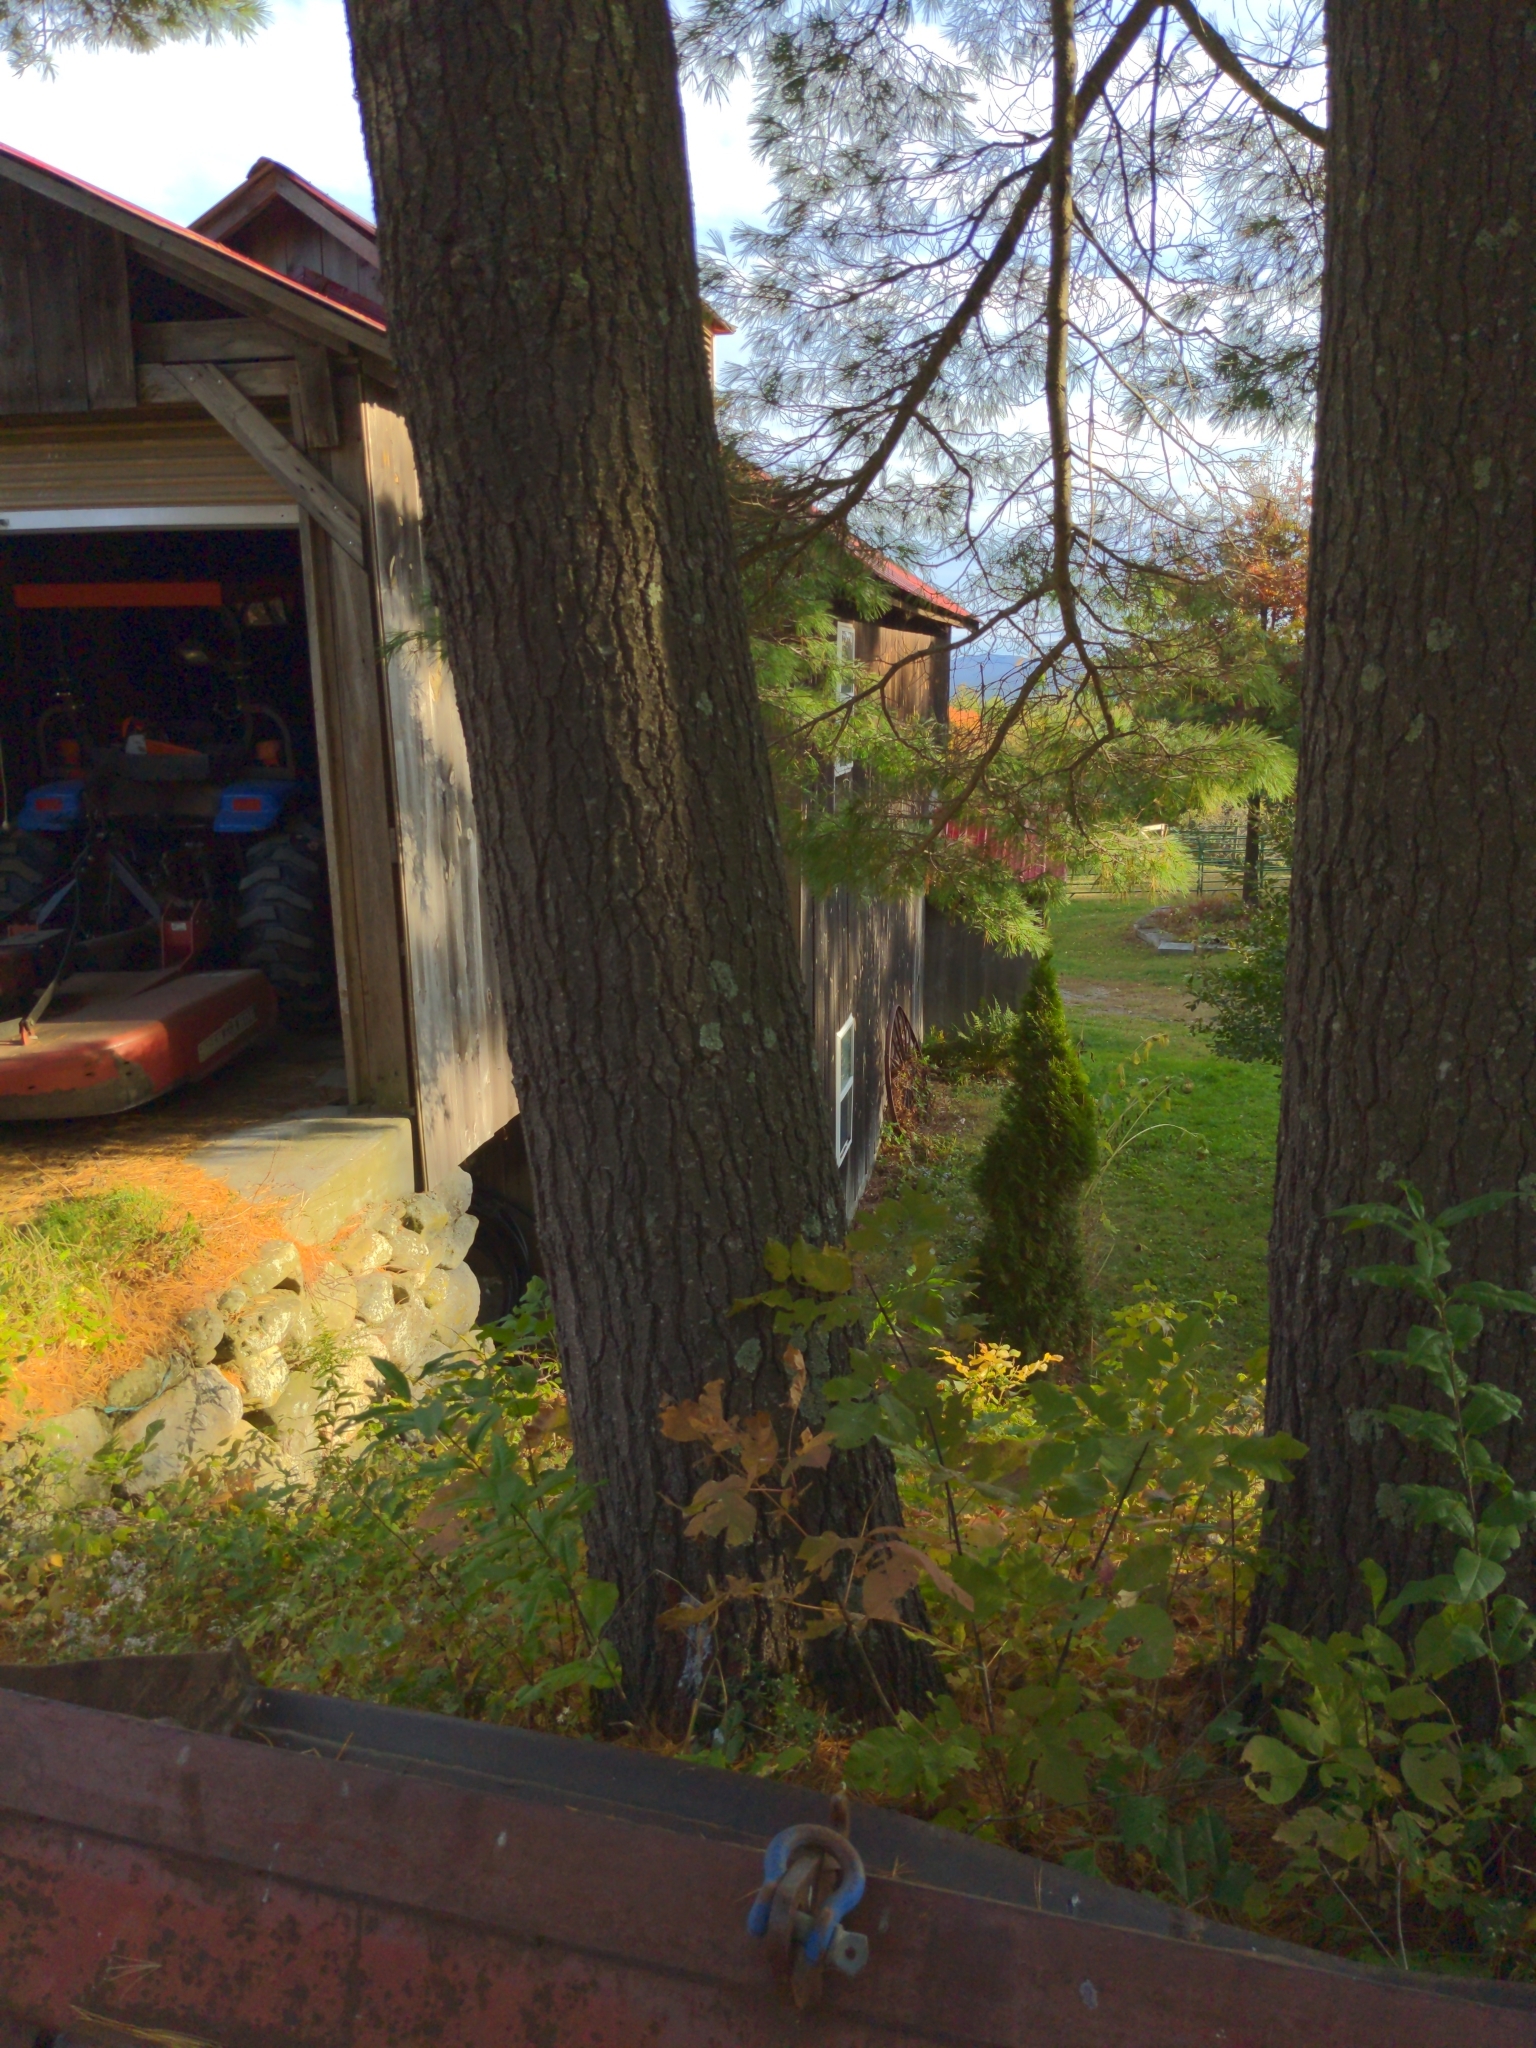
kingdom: Plantae
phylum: Tracheophyta
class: Pinopsida
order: Pinales
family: Pinaceae
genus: Pinus
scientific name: Pinus strobus
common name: Weymouth pine
